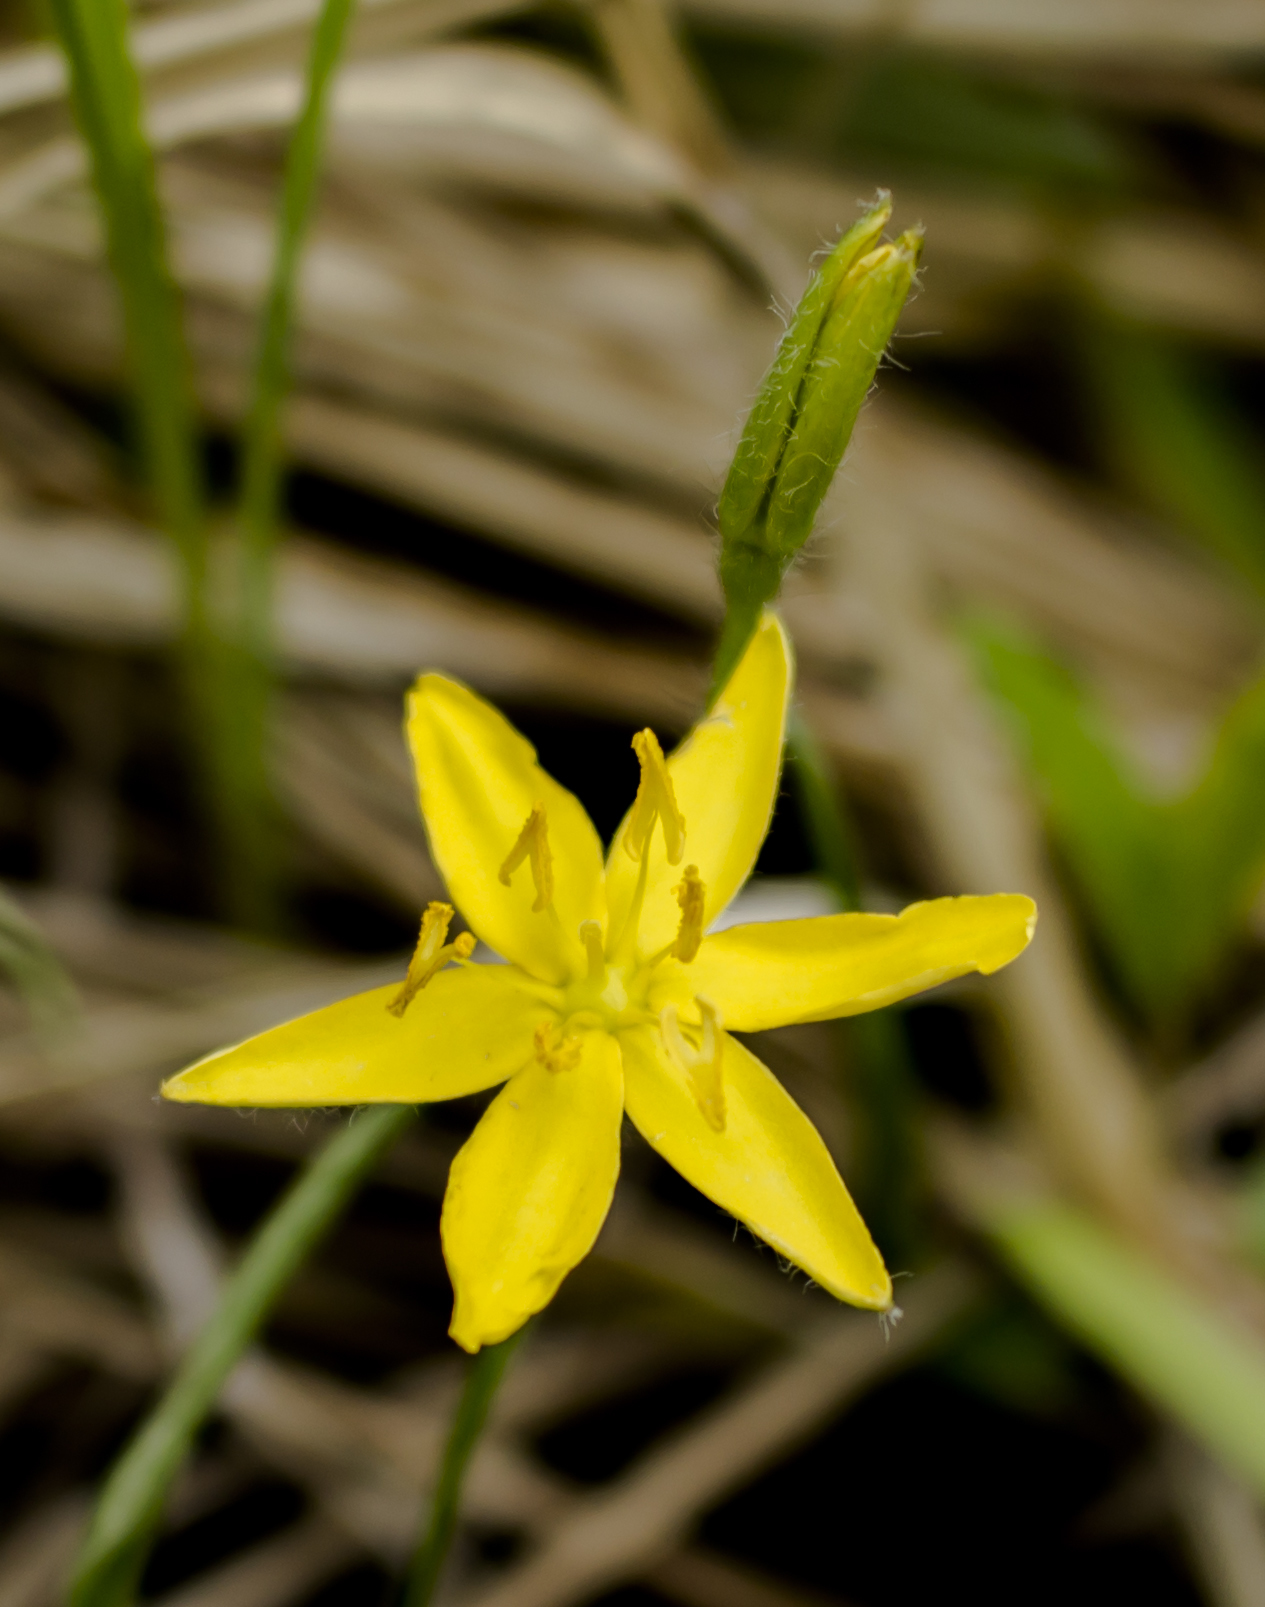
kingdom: Plantae
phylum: Tracheophyta
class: Liliopsida
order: Asparagales
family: Hypoxidaceae
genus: Hypoxis
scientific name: Hypoxis hirsuta
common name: Common goldstar
